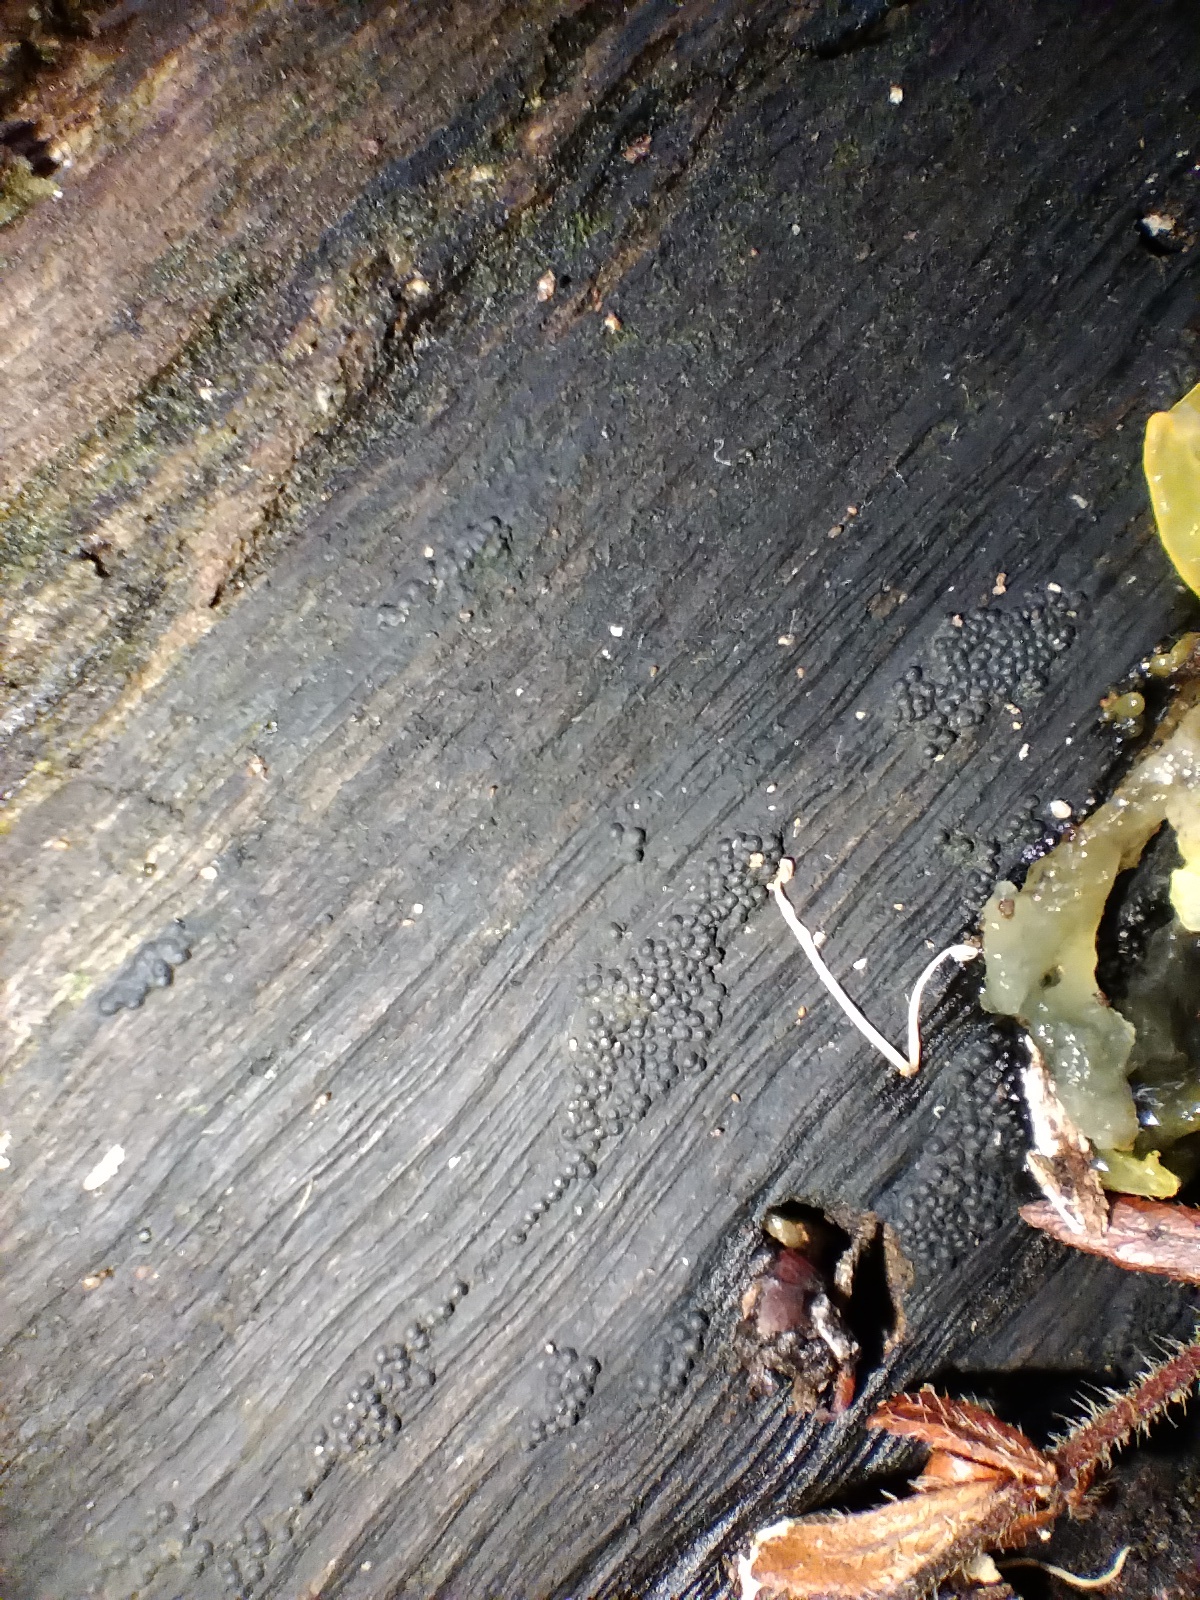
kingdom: Fungi
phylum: Ascomycota
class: Sordariomycetes
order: Xylariales
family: Hypoxylaceae
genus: Annulohypoxylon
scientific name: Annulohypoxylon bovei
